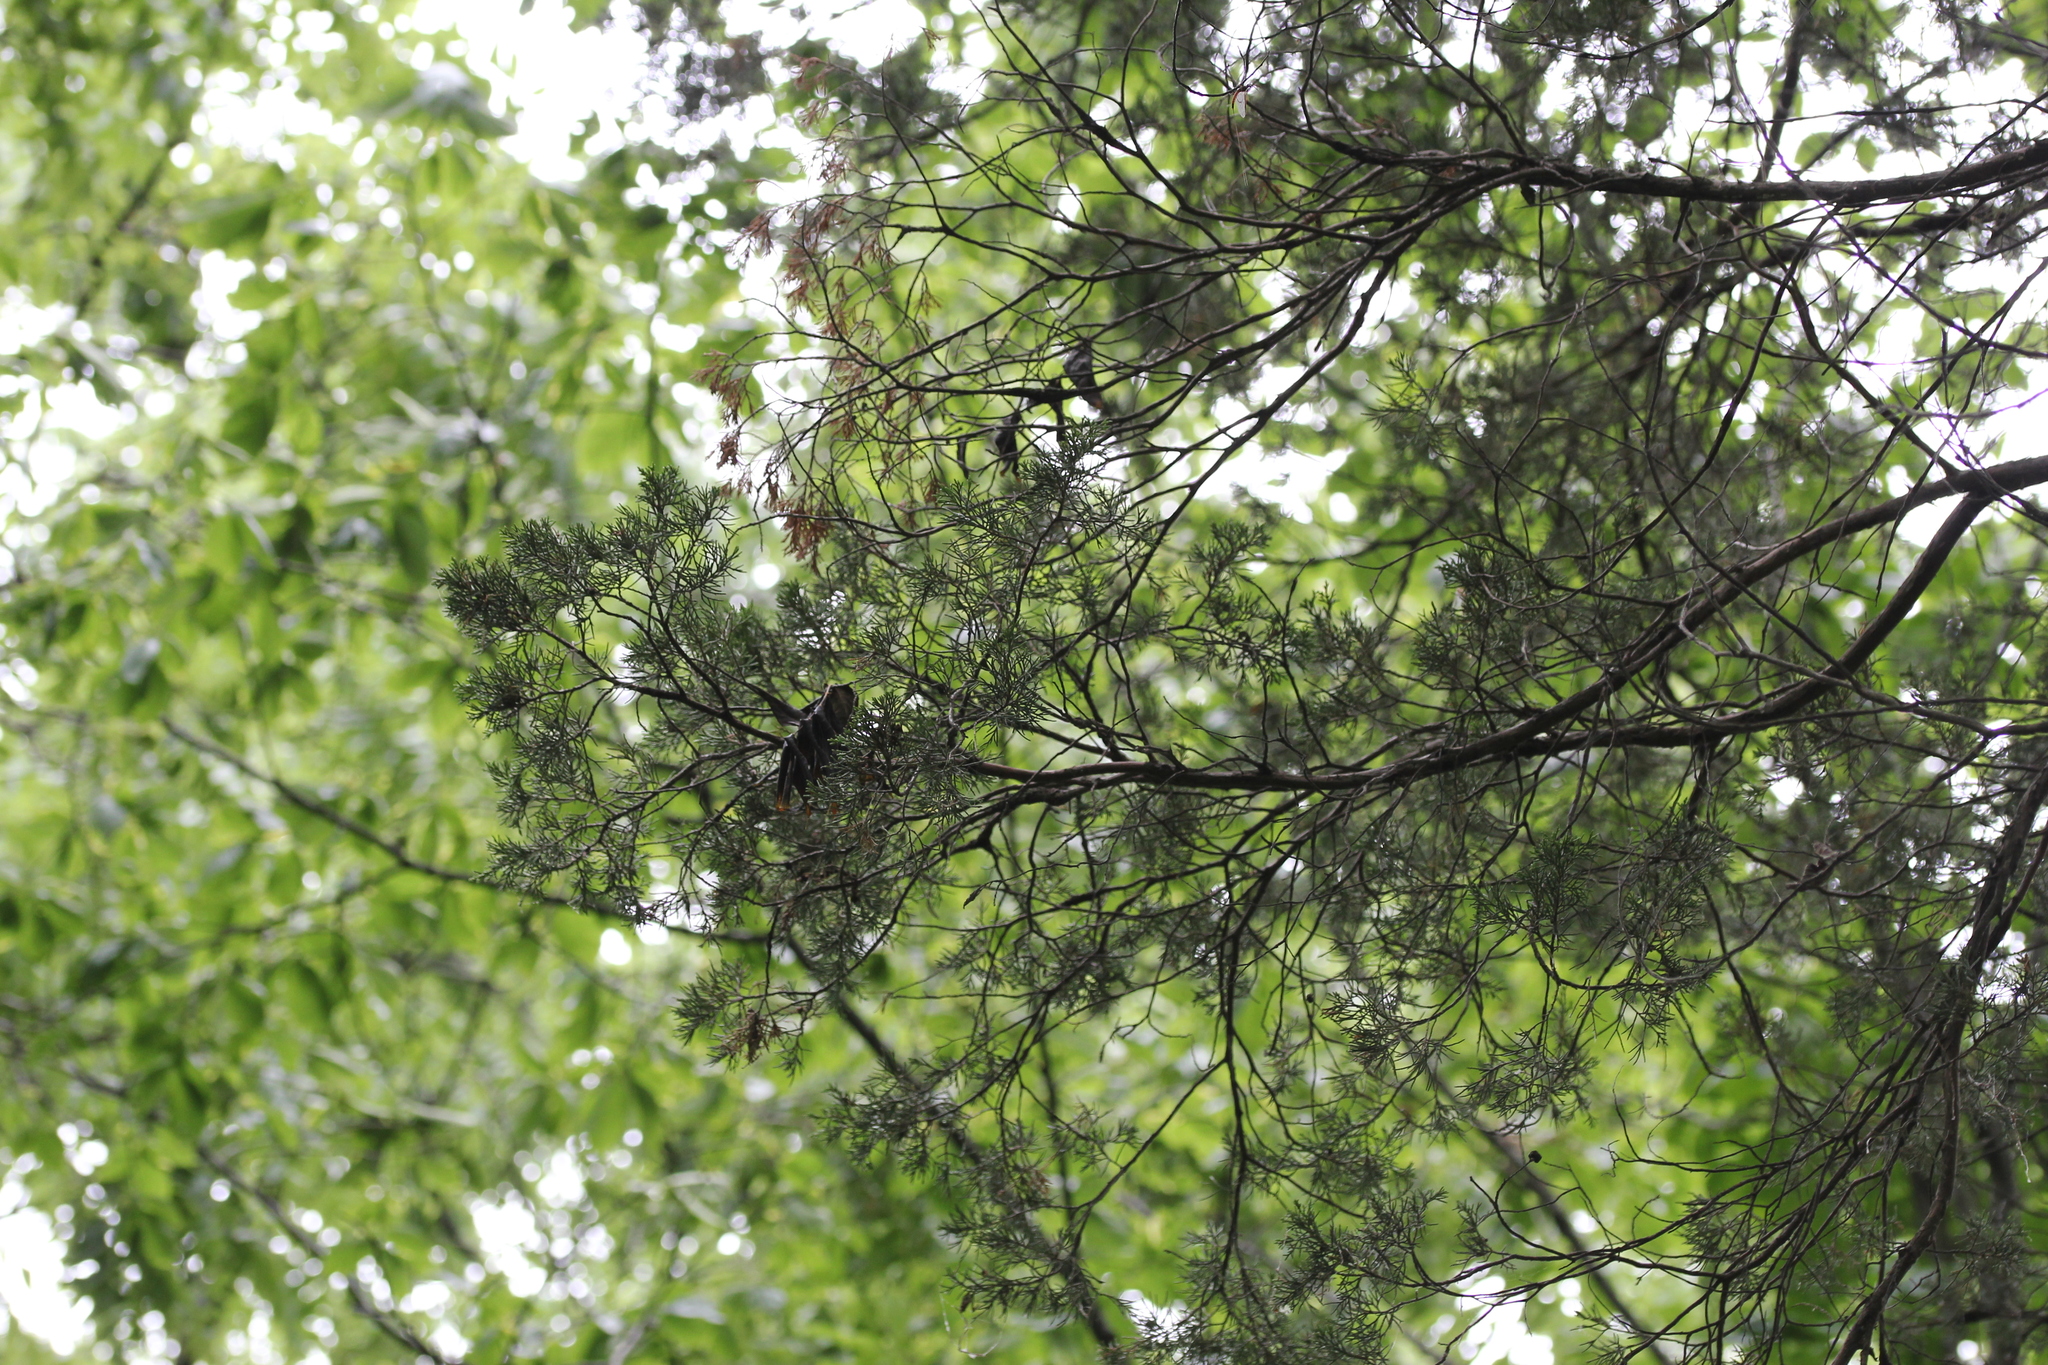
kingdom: Plantae
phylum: Tracheophyta
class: Pinopsida
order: Pinales
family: Cupressaceae
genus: Juniperus
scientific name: Juniperus virginiana
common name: Red juniper
